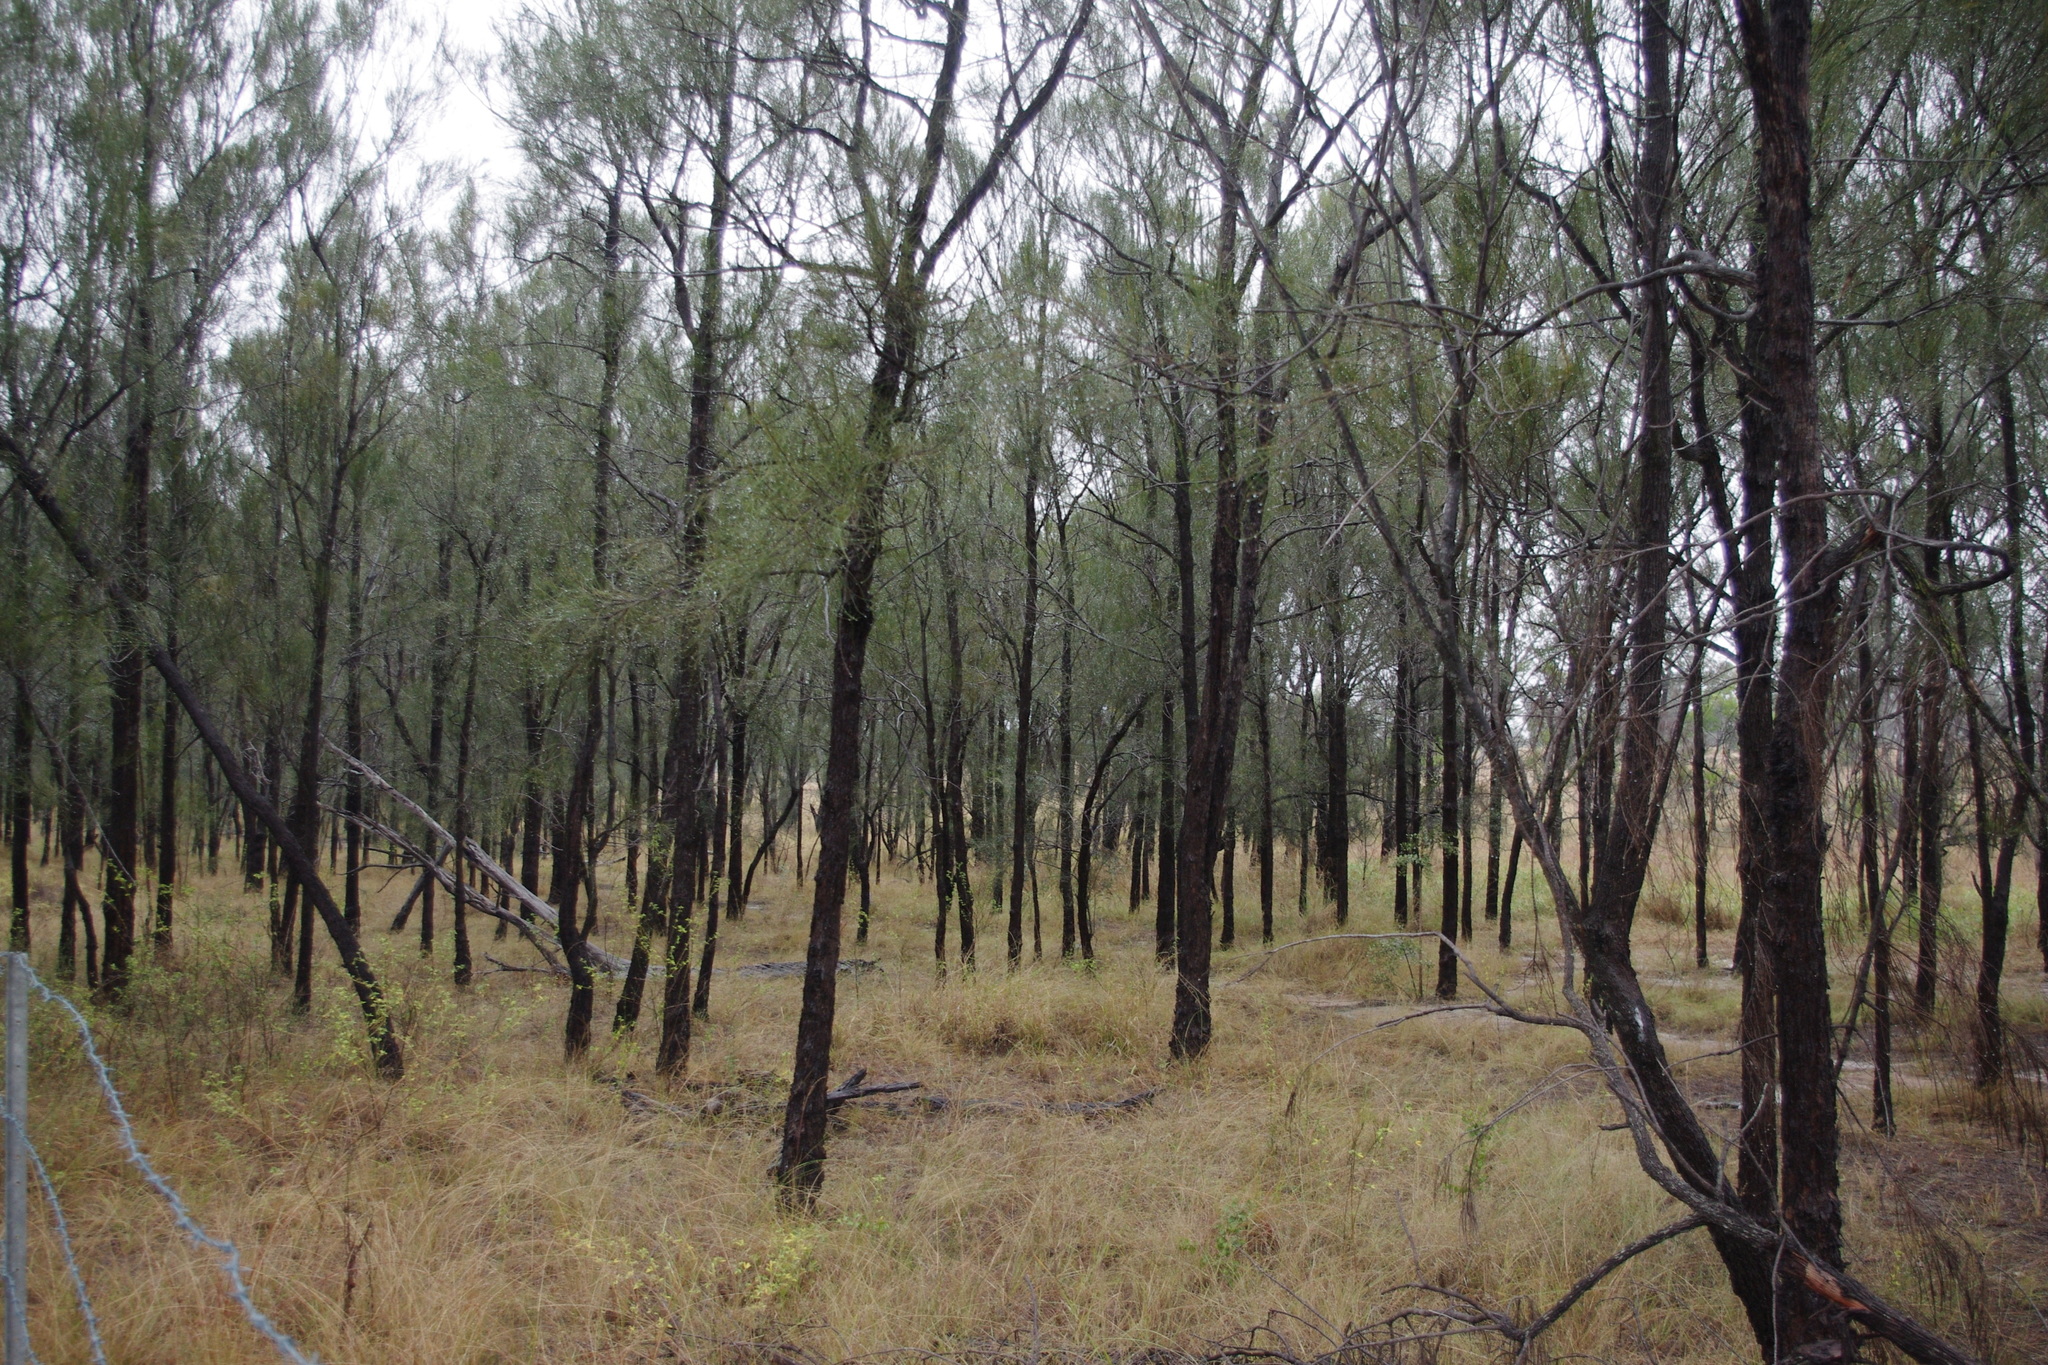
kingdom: Plantae
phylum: Tracheophyta
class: Magnoliopsida
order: Fagales
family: Casuarinaceae
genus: Allocasuarina
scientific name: Allocasuarina luehmannii
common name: Bull-oak
